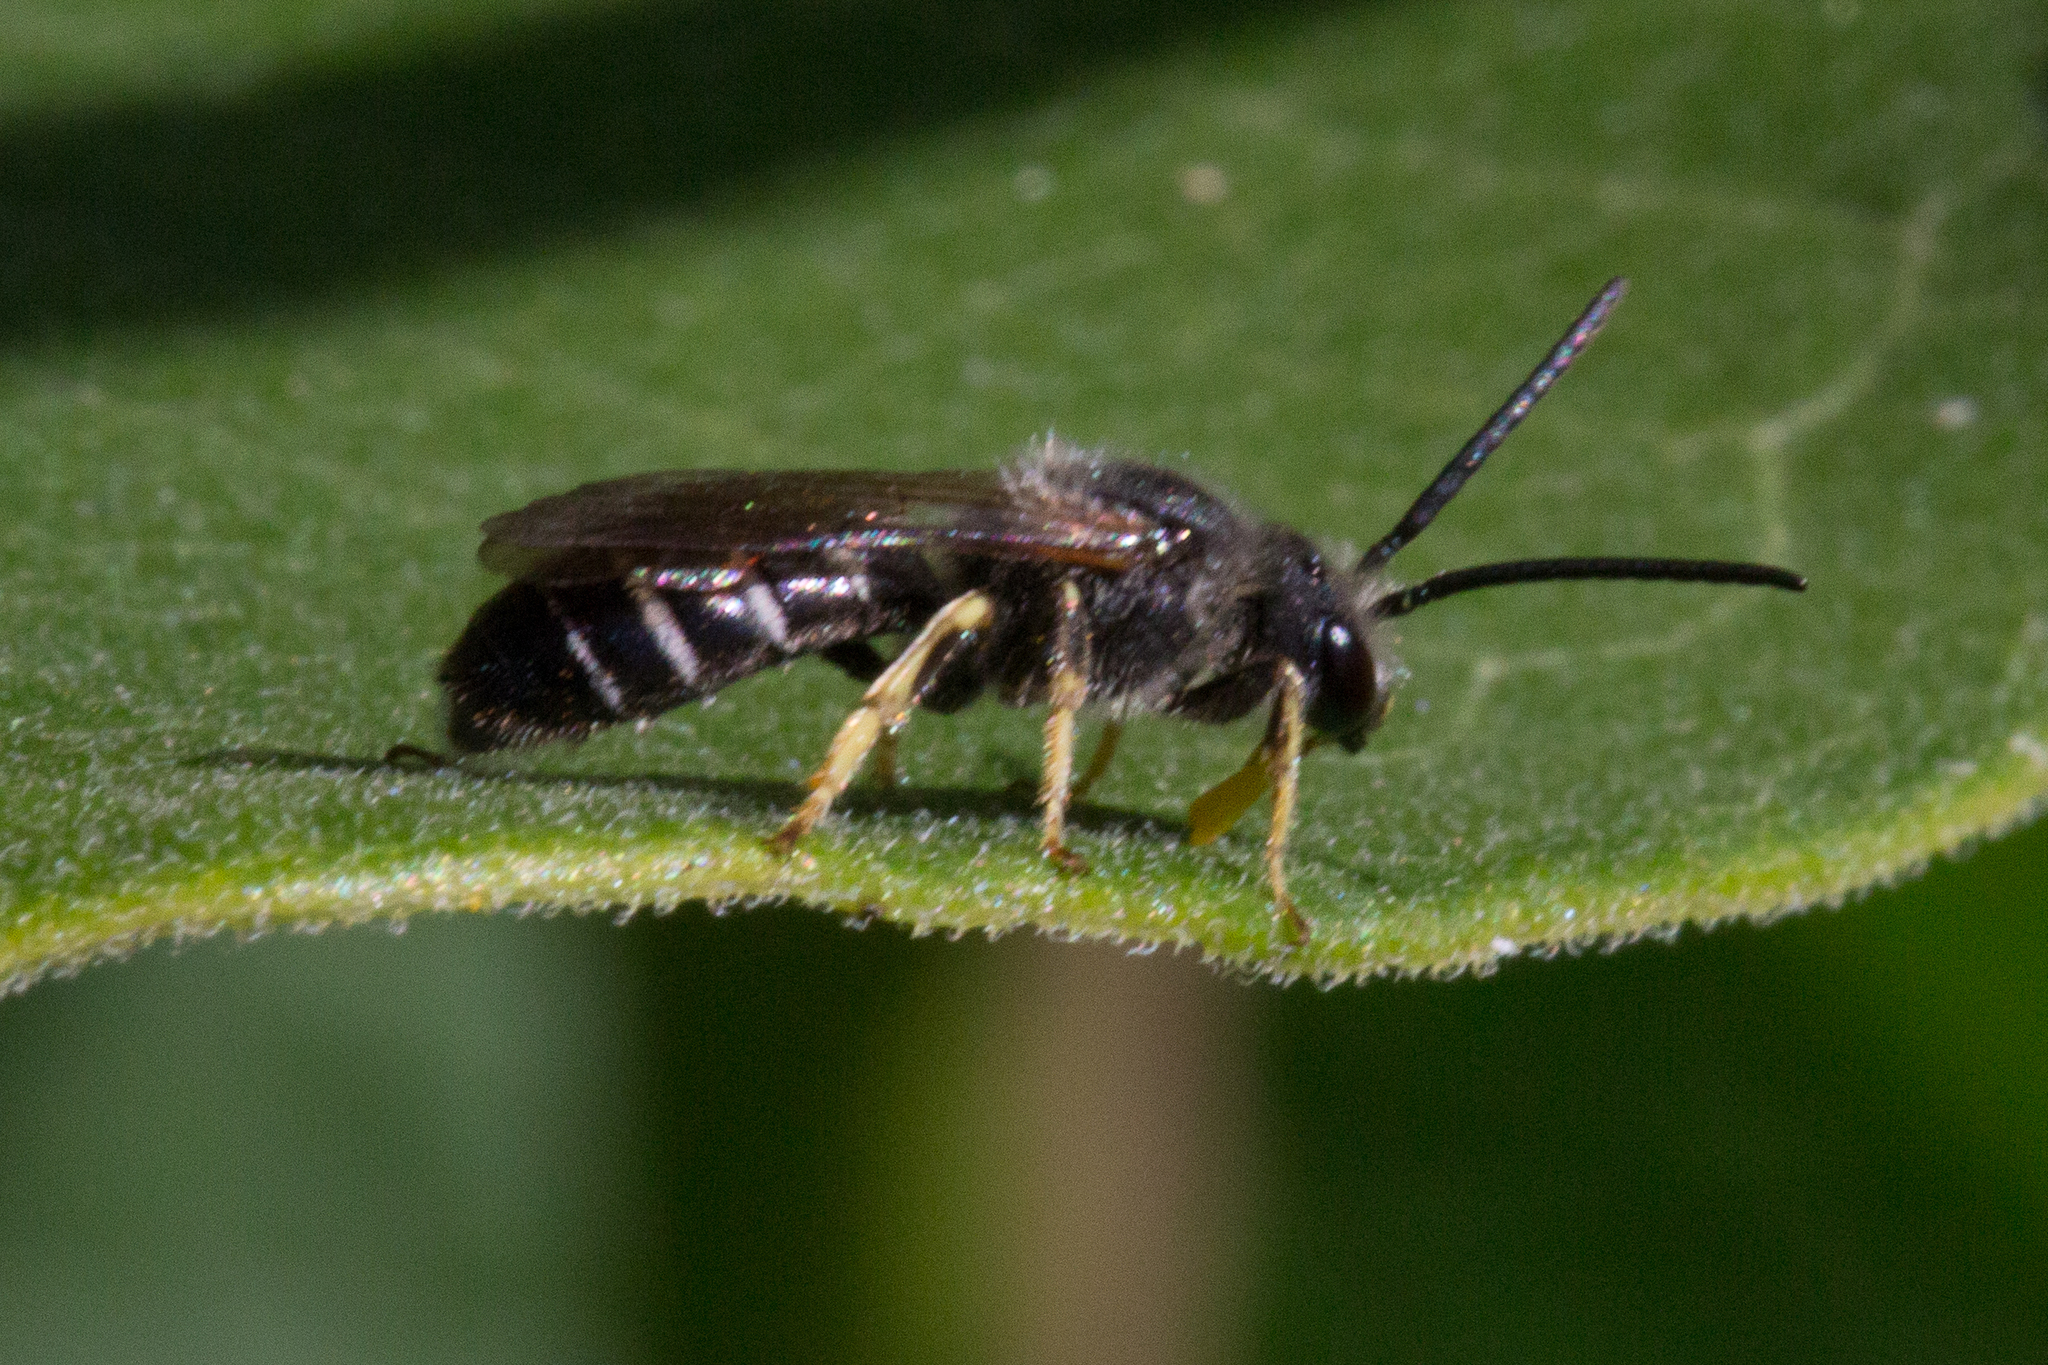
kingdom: Animalia
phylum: Arthropoda
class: Insecta
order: Hymenoptera
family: Halictidae
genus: Halictus
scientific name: Halictus rubicundus
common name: Orange-legged furrow bee
